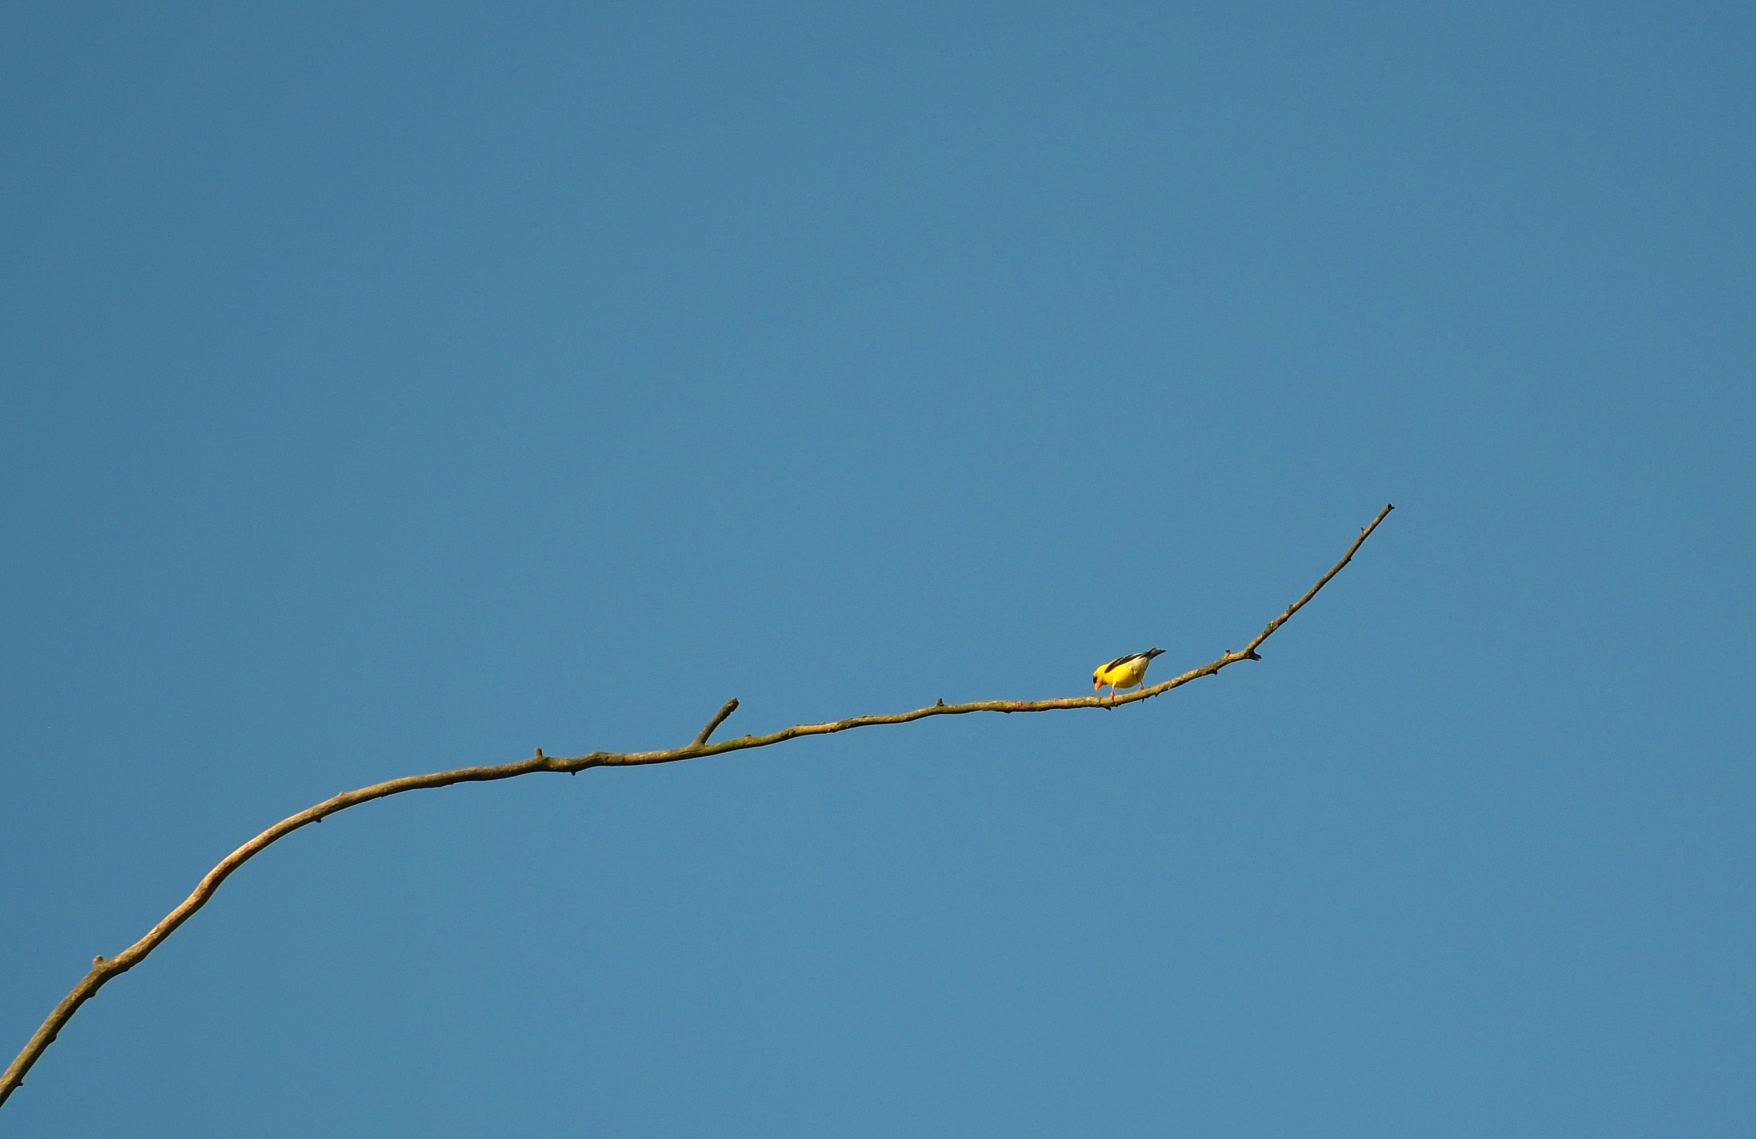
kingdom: Animalia
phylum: Chordata
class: Aves
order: Passeriformes
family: Fringillidae
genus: Spinus
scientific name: Spinus tristis
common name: American goldfinch
